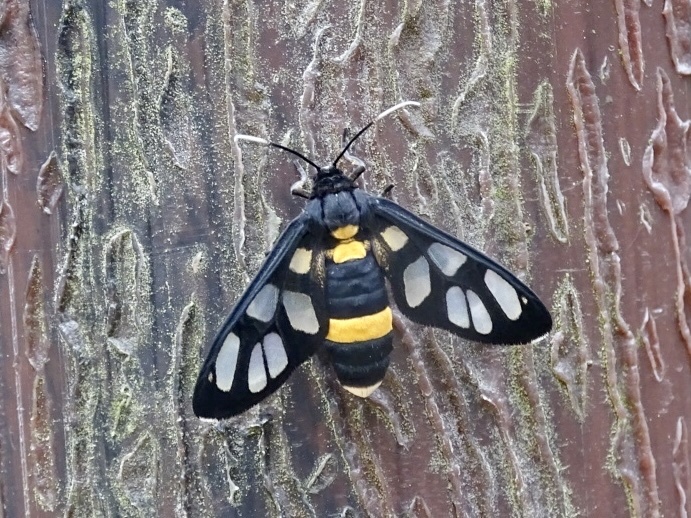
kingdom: Animalia
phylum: Arthropoda
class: Insecta
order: Lepidoptera
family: Erebidae
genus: Amata
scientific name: Amata sperbius
